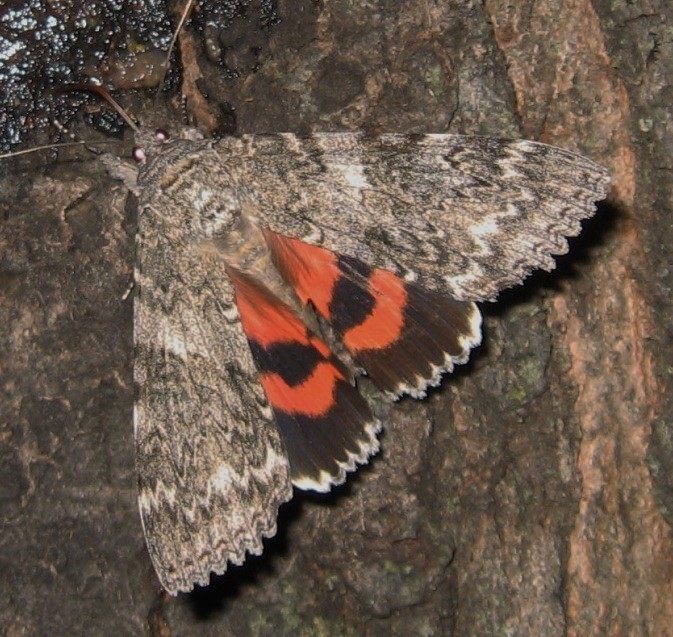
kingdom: Animalia
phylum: Arthropoda
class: Insecta
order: Lepidoptera
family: Erebidae
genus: Catocala
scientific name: Catocala unijuga
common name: Once-married underwing
